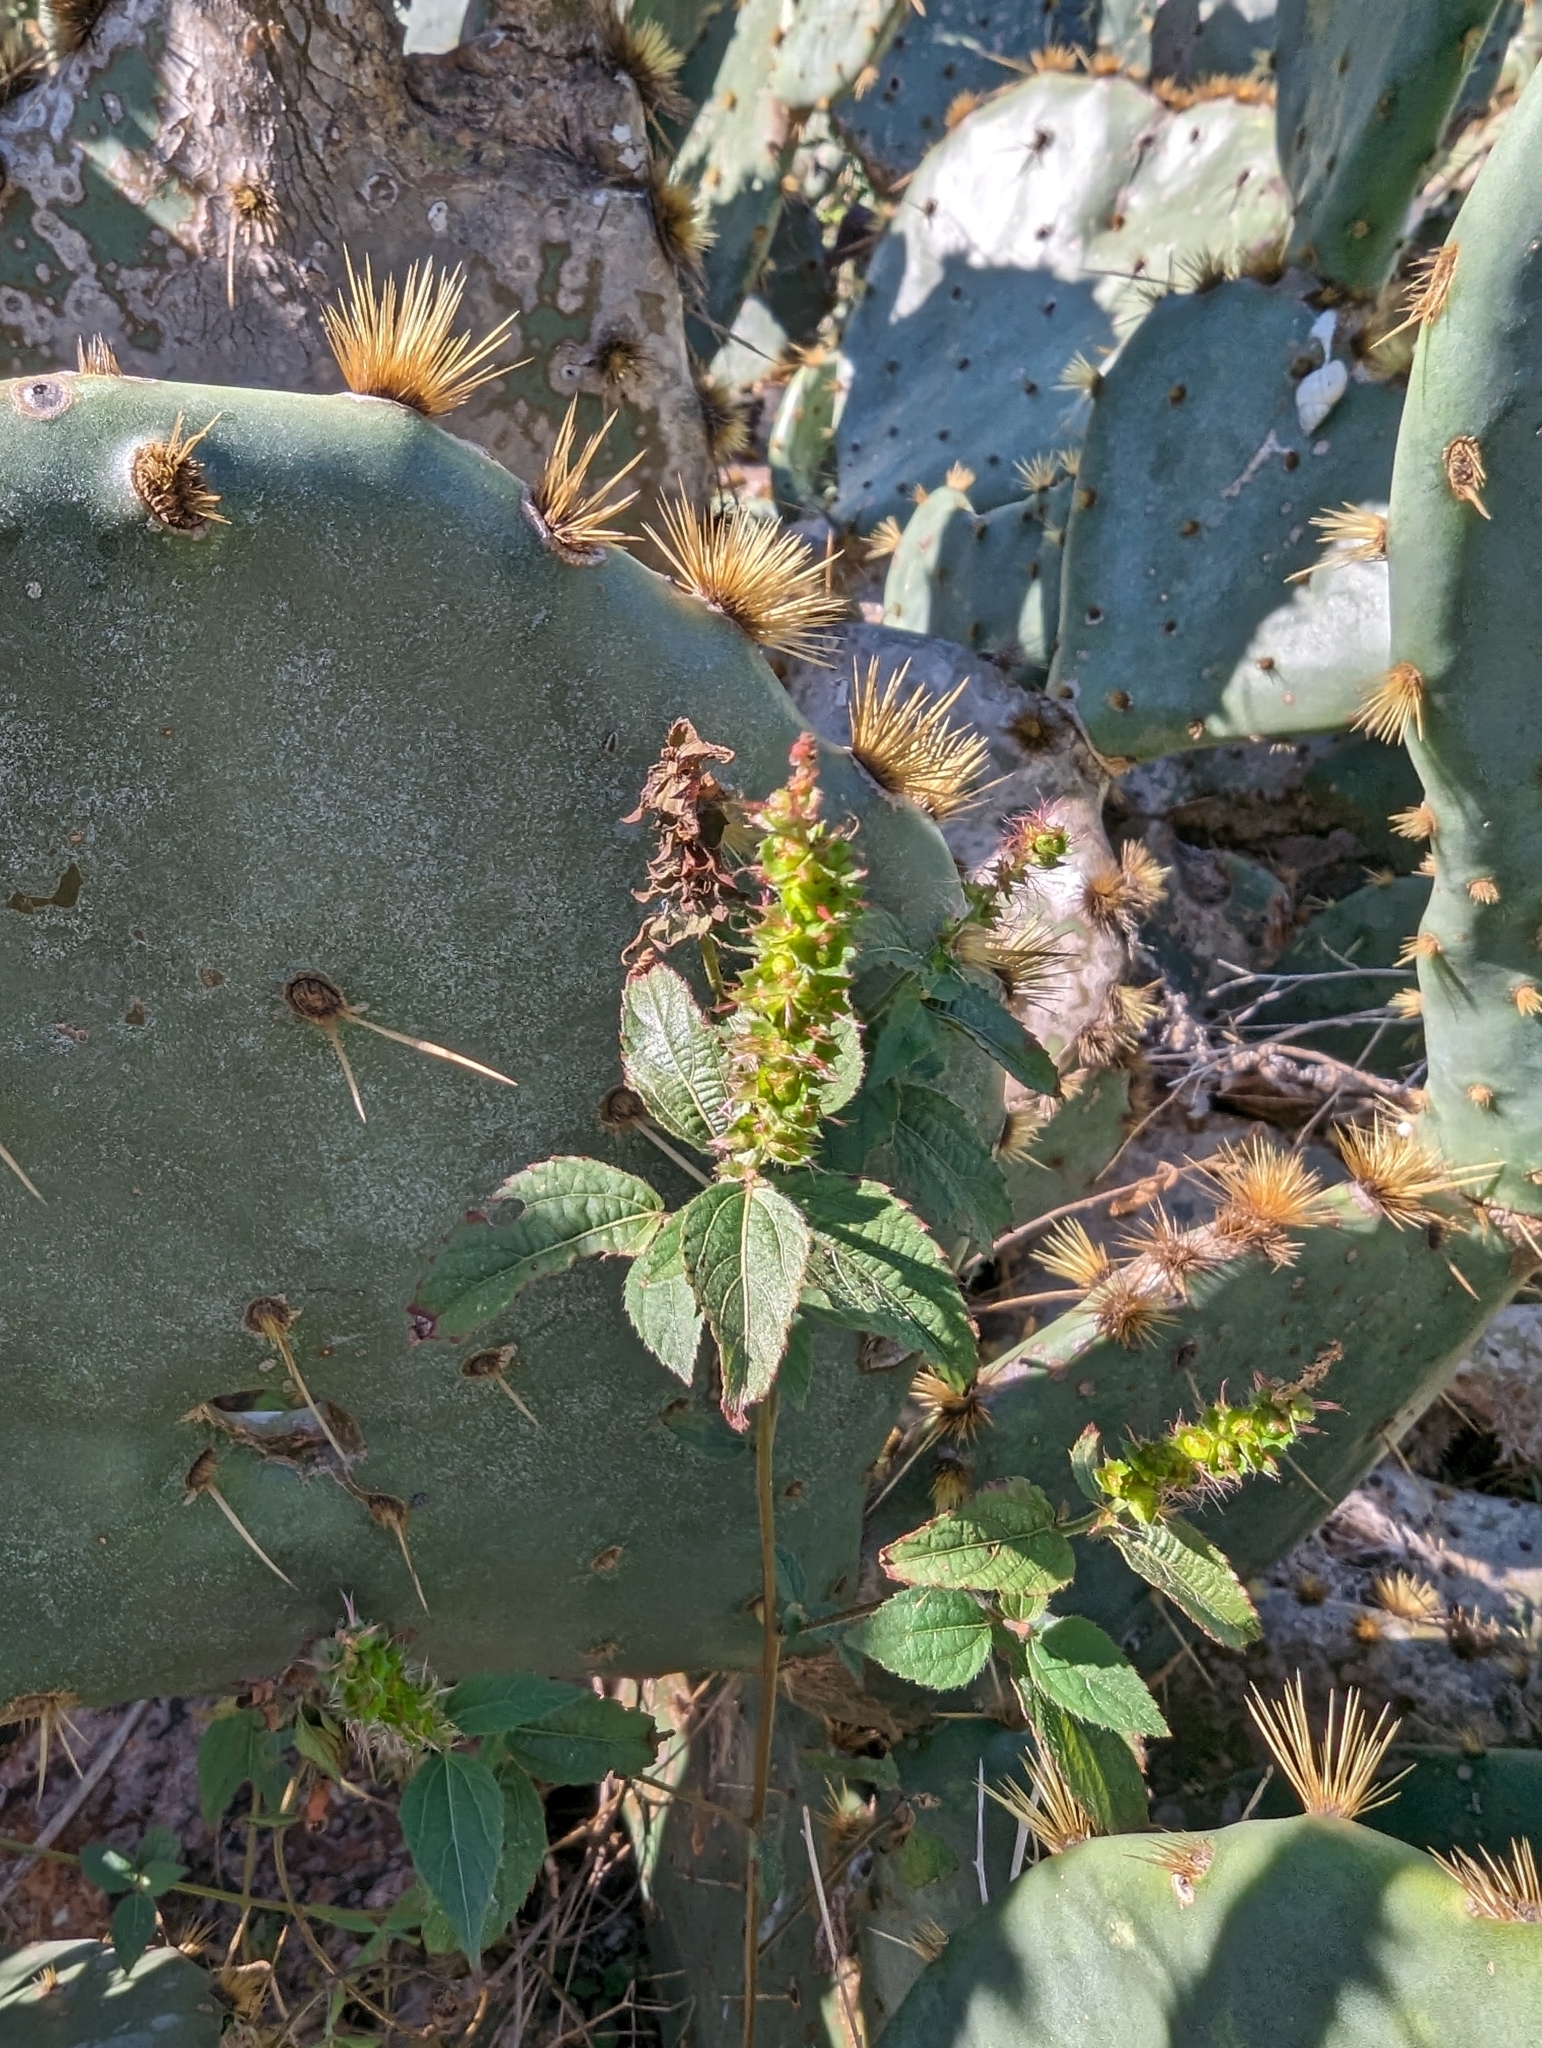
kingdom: Plantae
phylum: Tracheophyta
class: Magnoliopsida
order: Malpighiales
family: Euphorbiaceae
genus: Acalypha
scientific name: Acalypha phleoides
